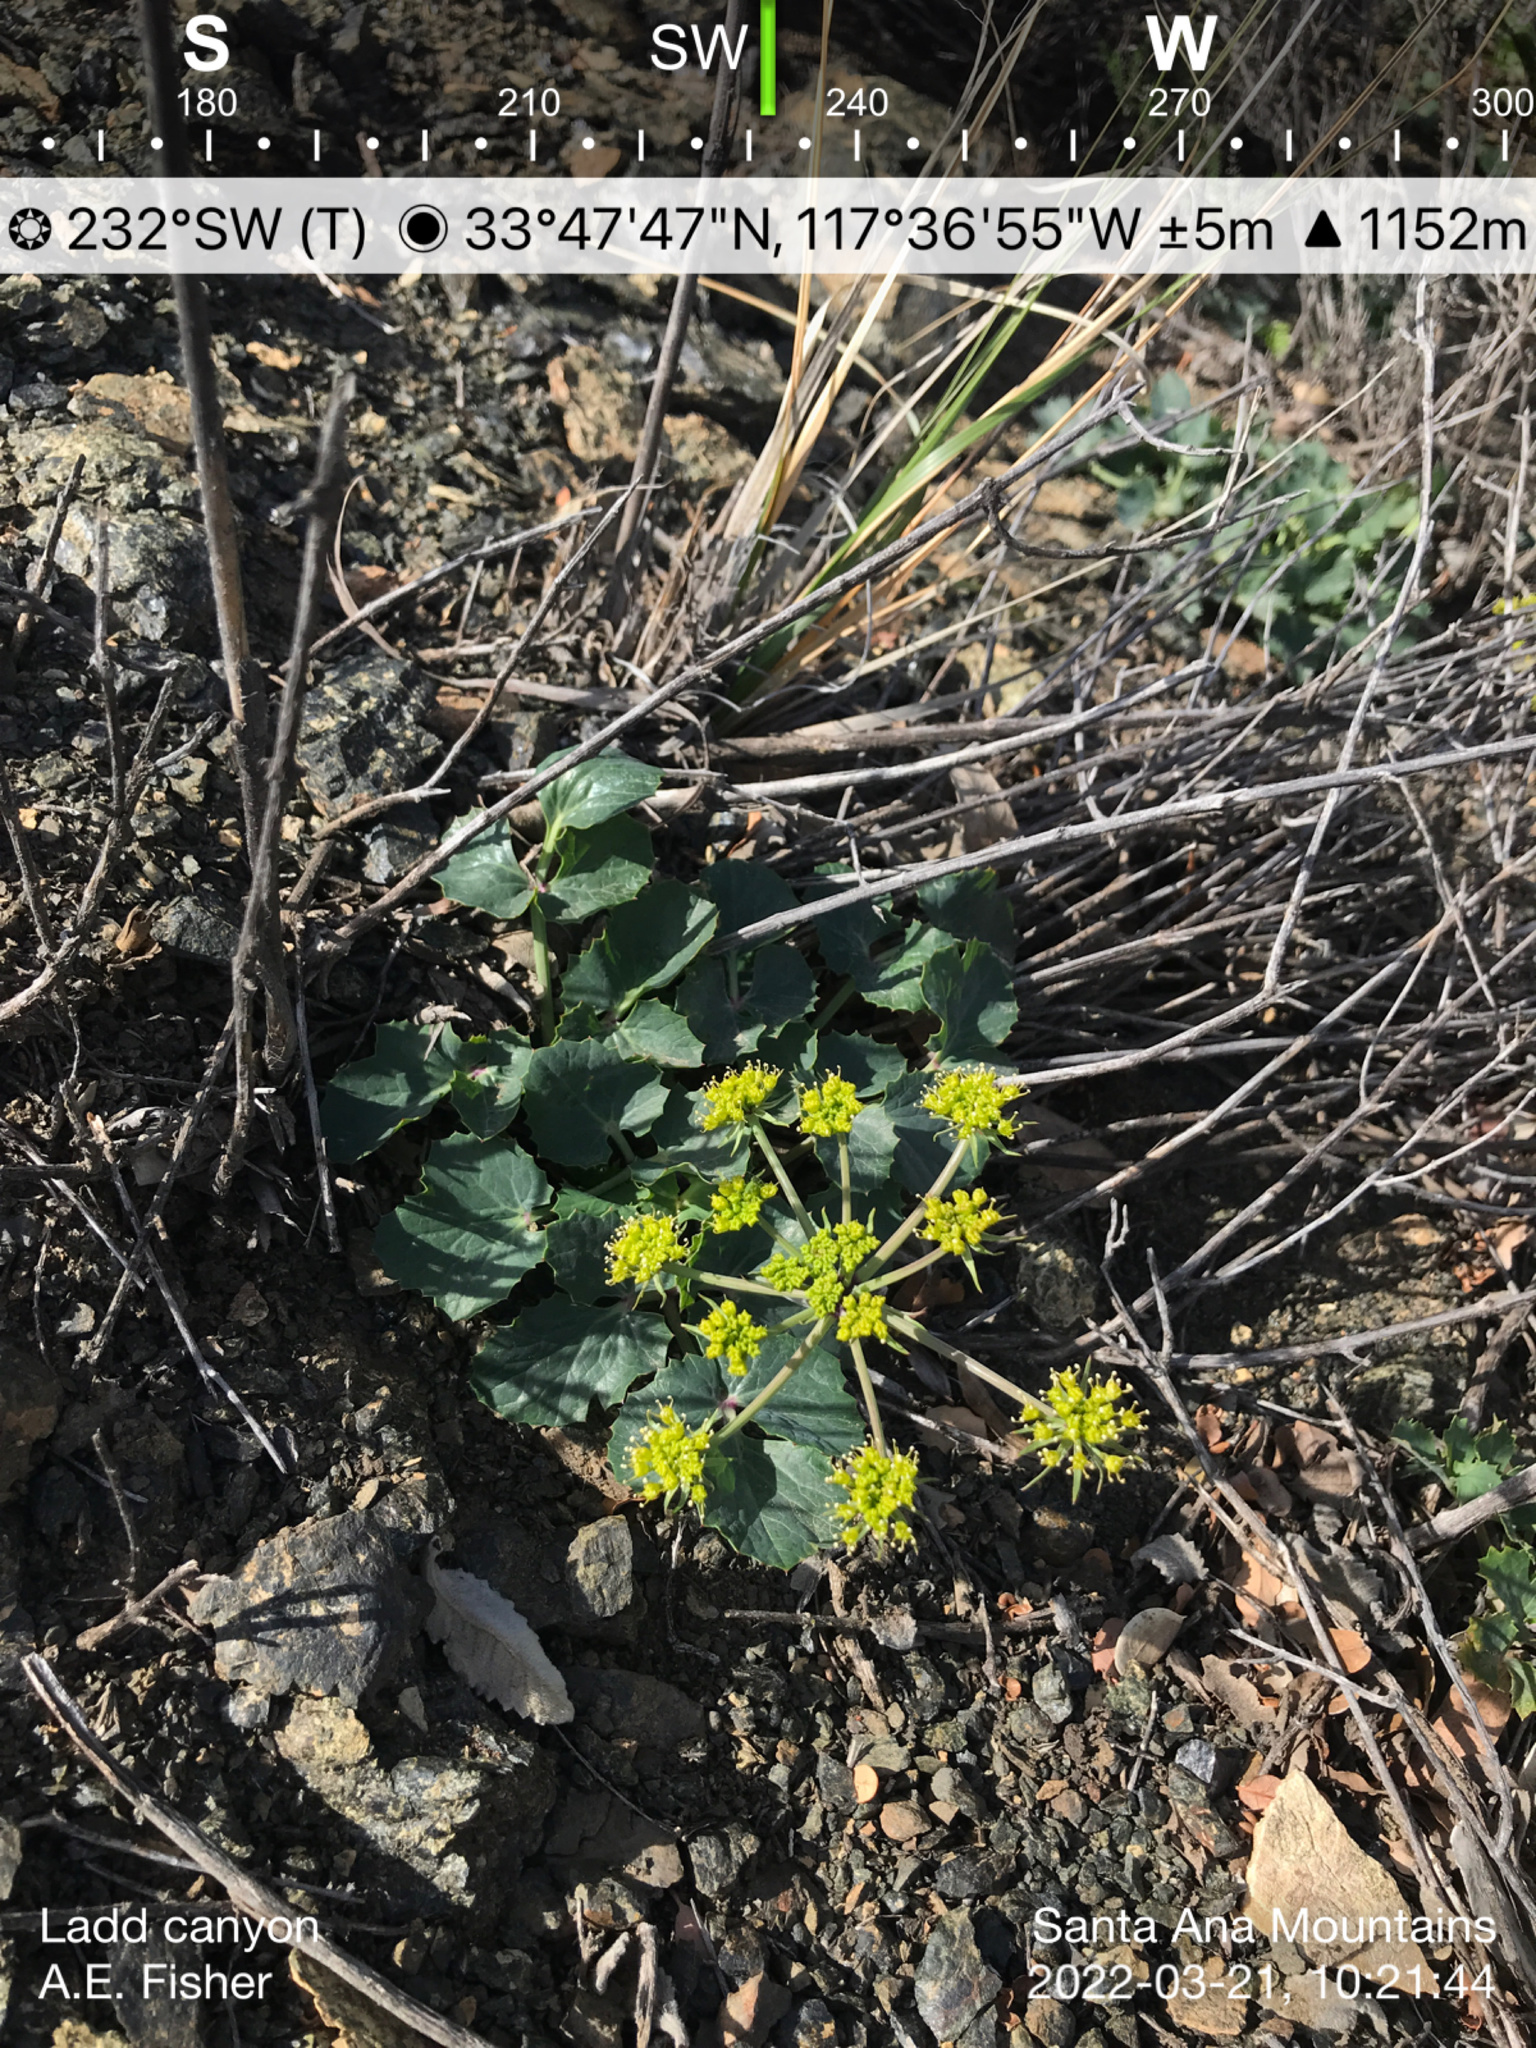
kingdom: Plantae
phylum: Tracheophyta
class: Magnoliopsida
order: Apiales
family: Apiaceae
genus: Lomatium
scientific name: Lomatium lucidum
